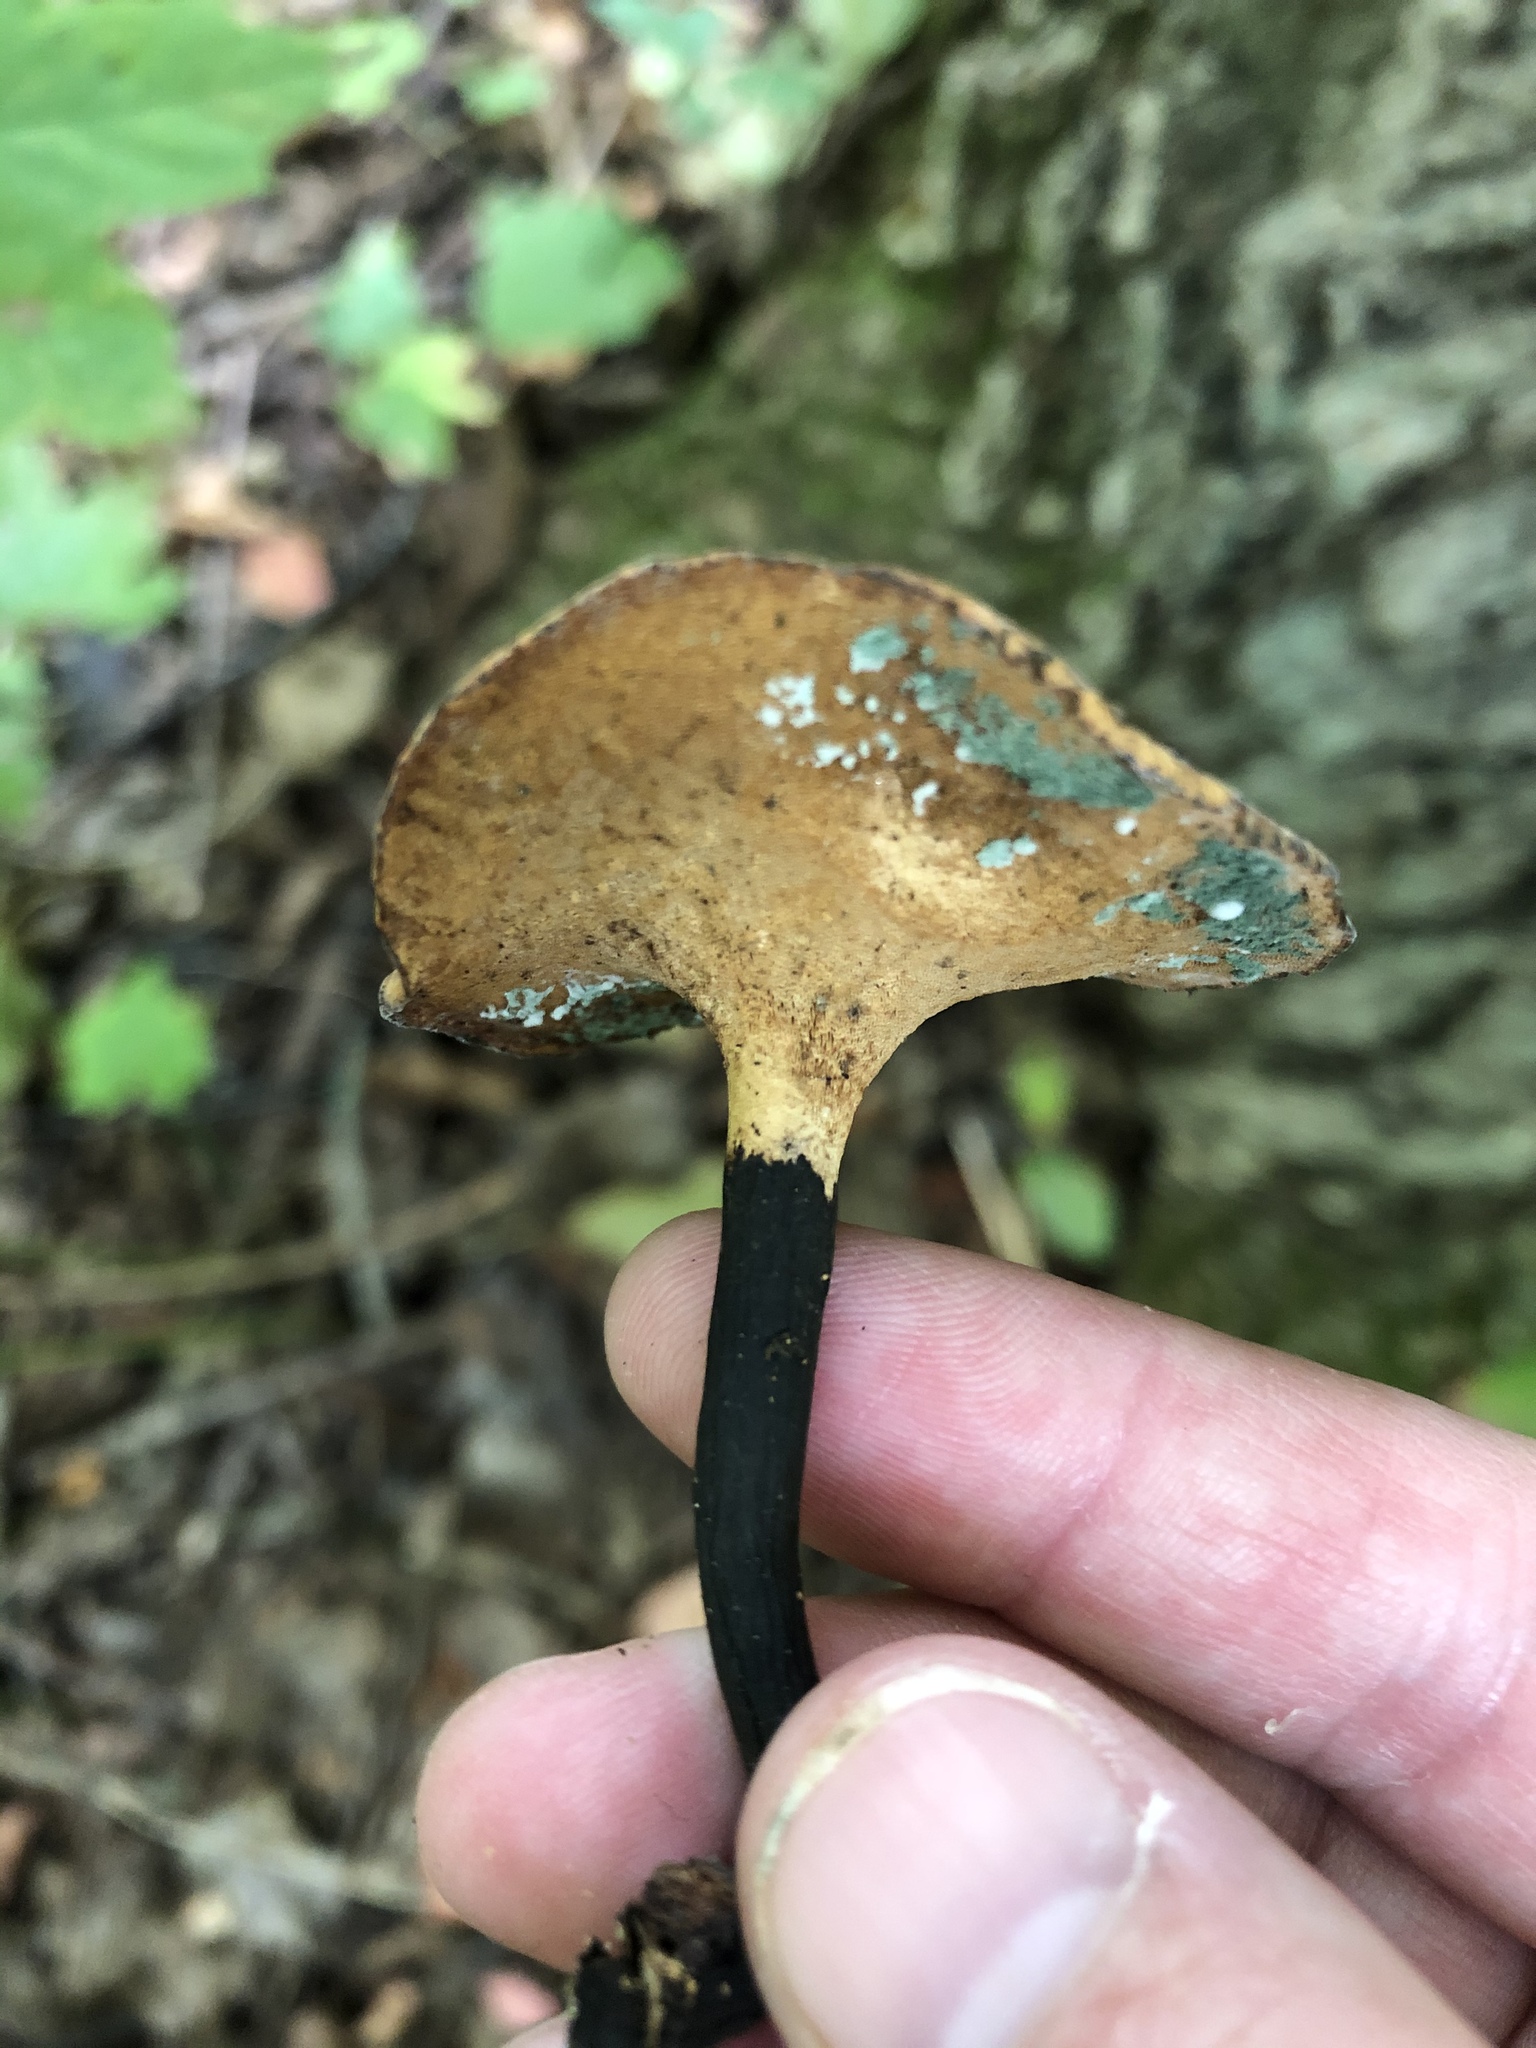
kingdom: Fungi
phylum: Basidiomycota
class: Agaricomycetes
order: Polyporales
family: Polyporaceae
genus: Cerioporus
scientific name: Cerioporus leptocephalus
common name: Blackfoot polypore
